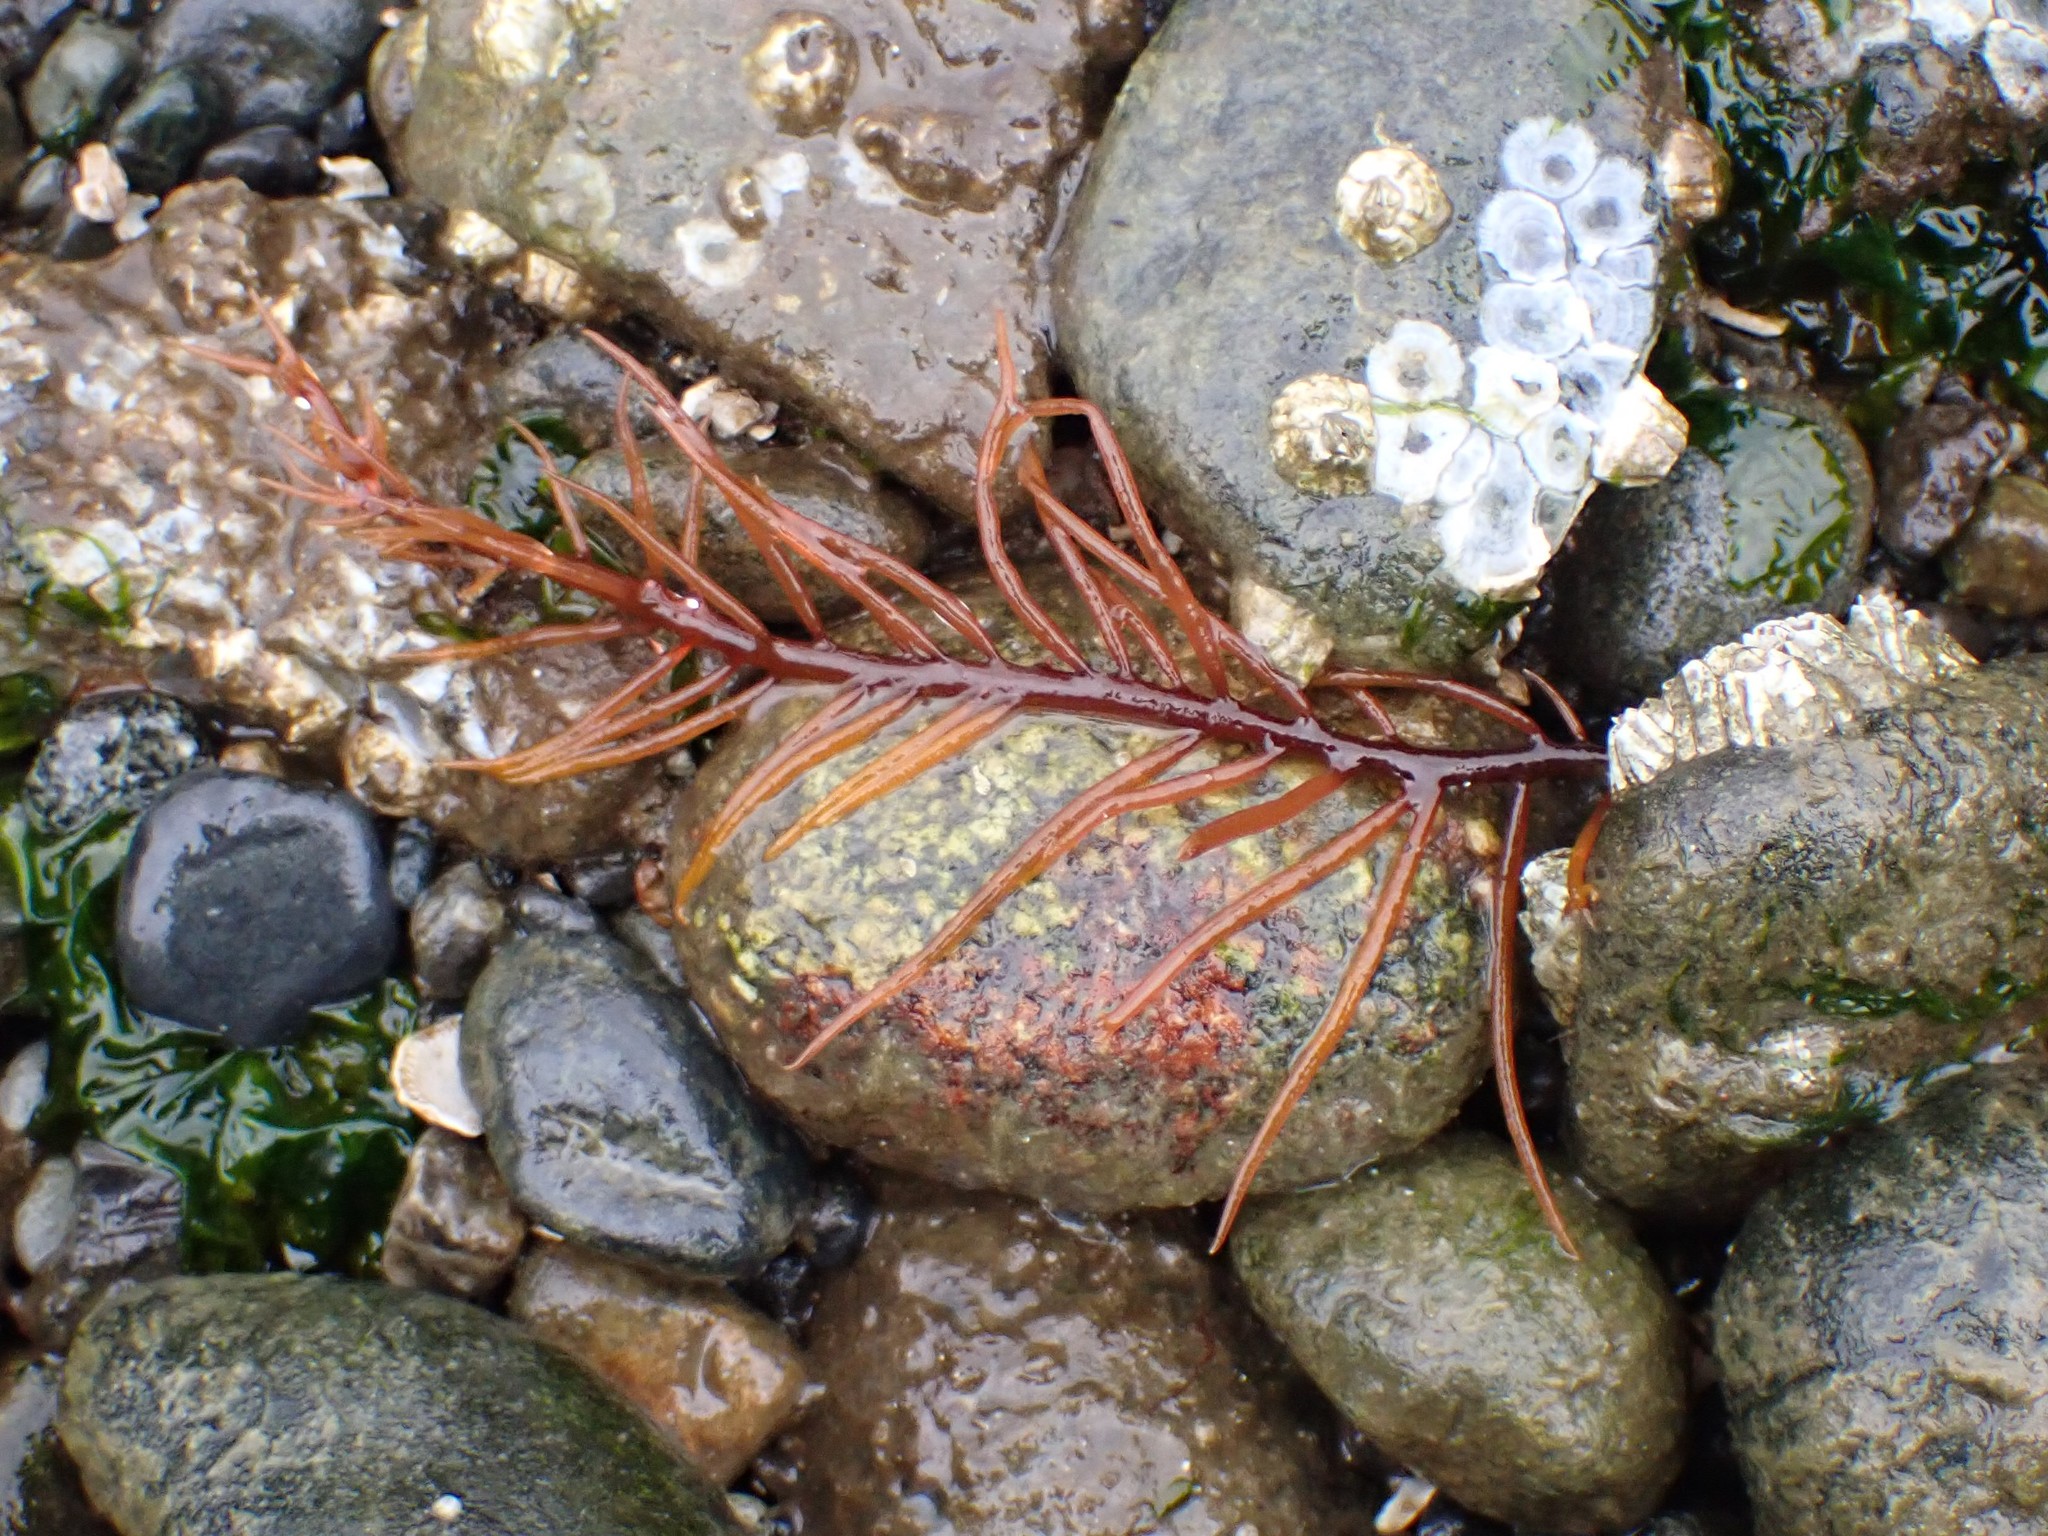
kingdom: Plantae
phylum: Rhodophyta
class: Florideophyceae
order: Gigartinales
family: Solieriaceae
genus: Sarcodiotheca
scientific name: Sarcodiotheca gaudichaudii
